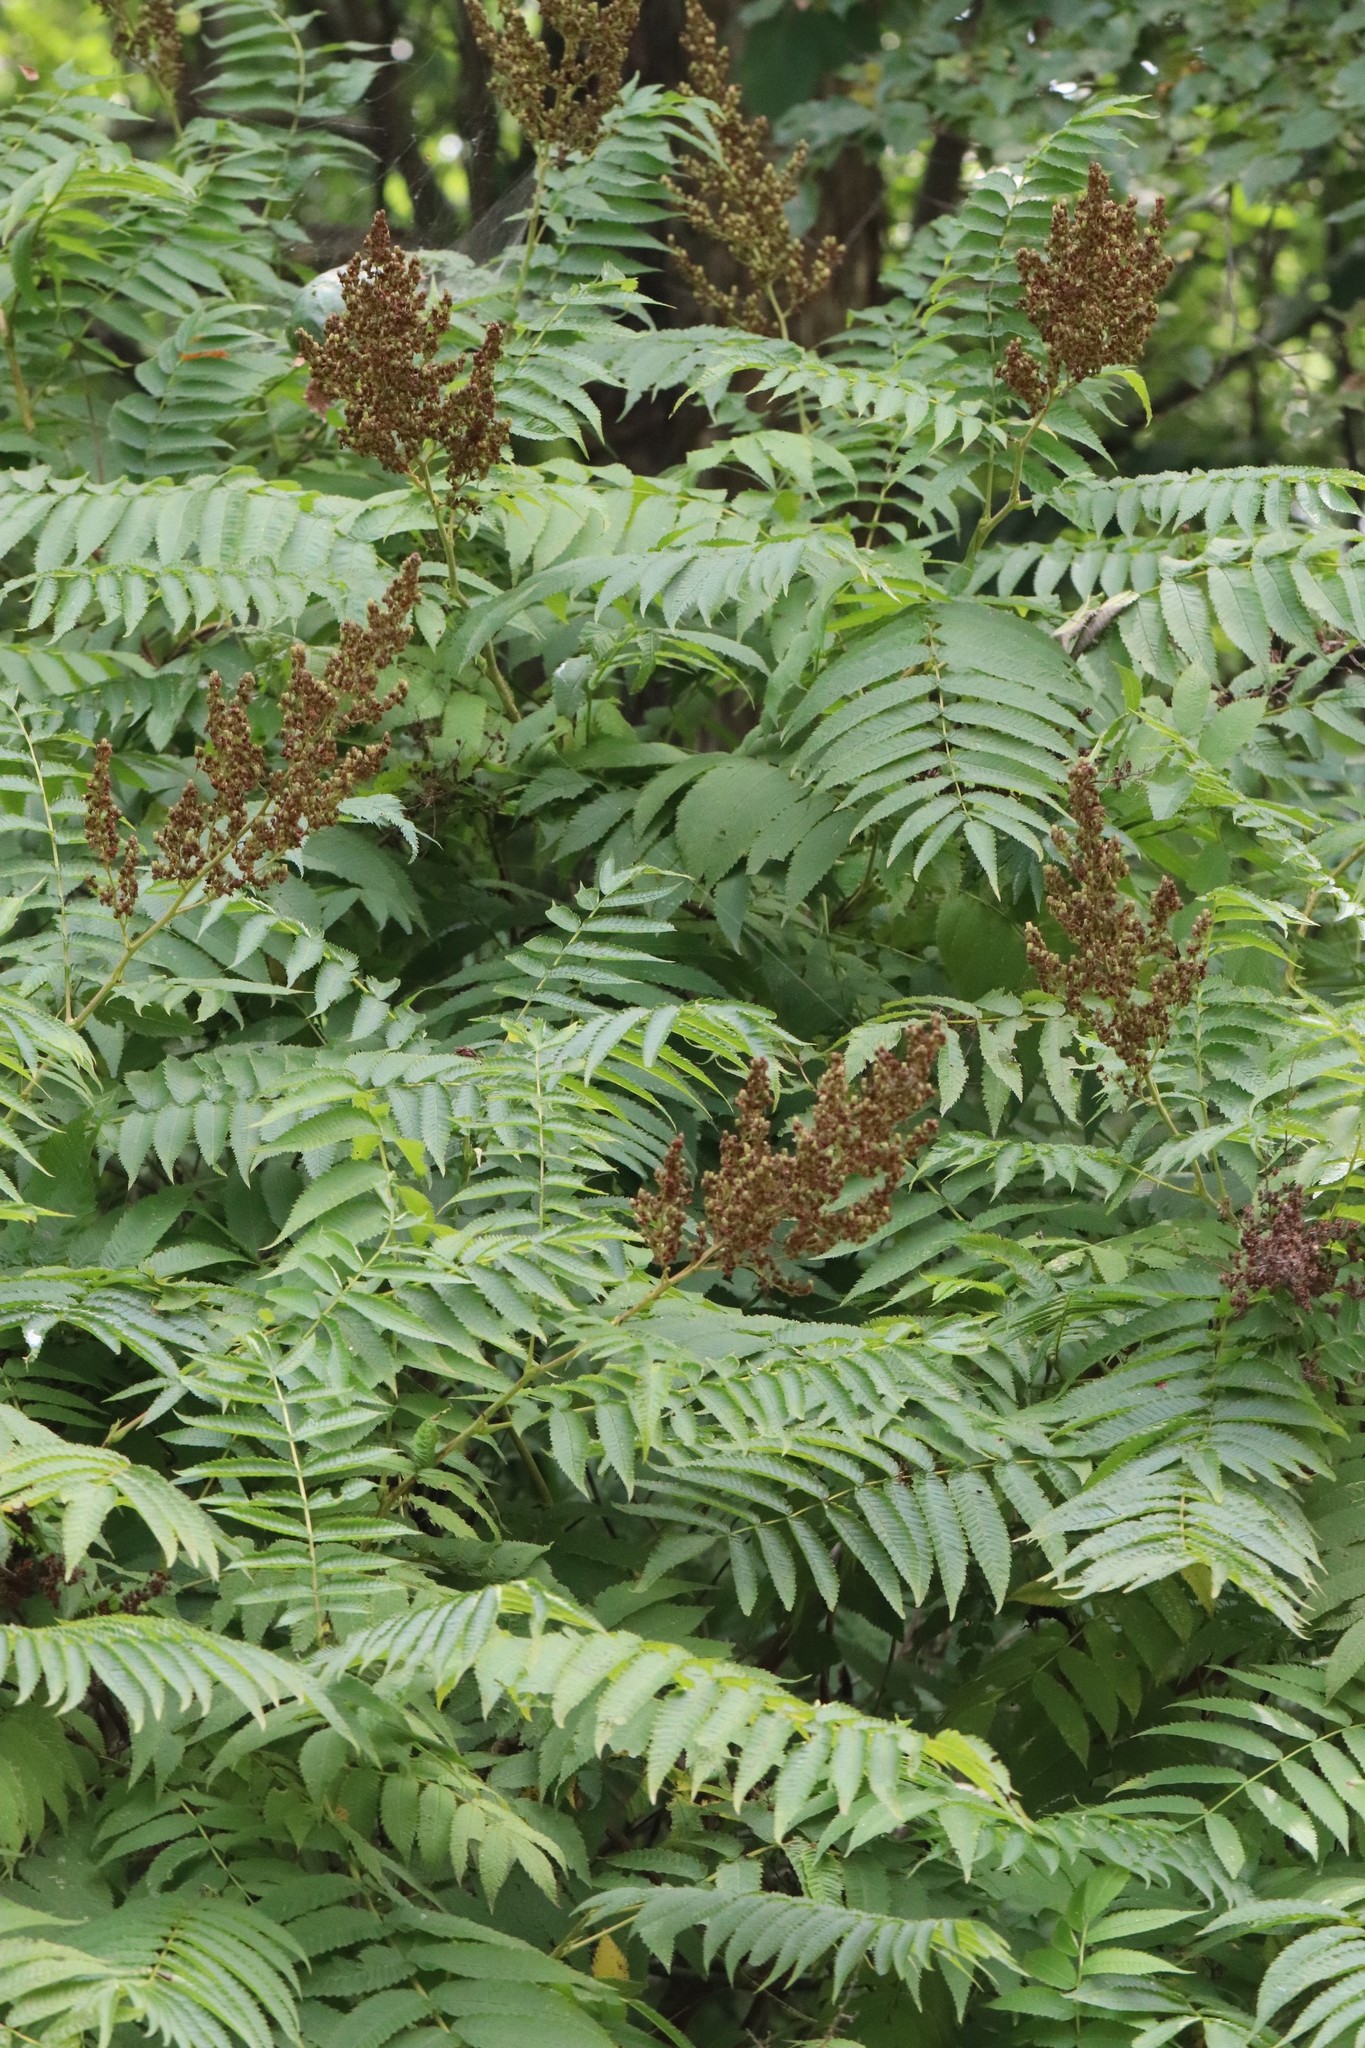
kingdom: Plantae
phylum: Tracheophyta
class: Magnoliopsida
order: Rosales
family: Rosaceae
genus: Sorbaria
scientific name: Sorbaria sorbifolia
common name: False spiraea
